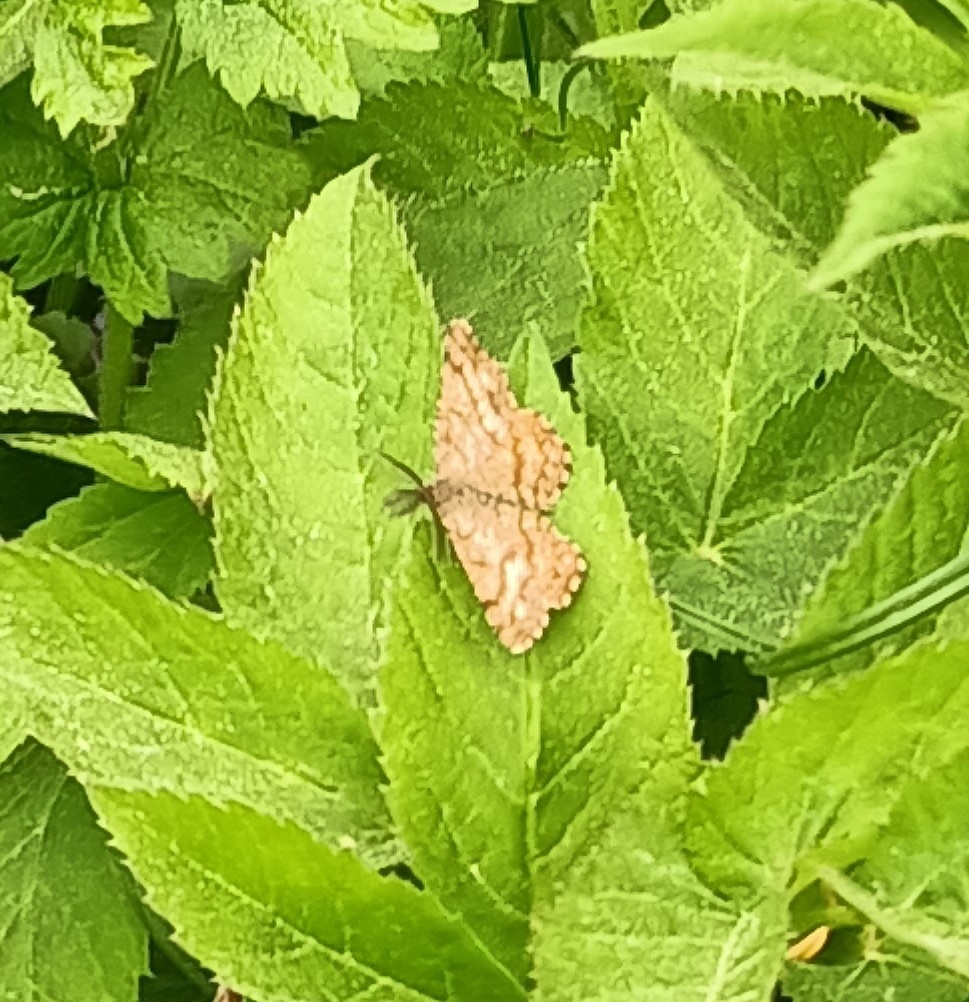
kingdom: Animalia
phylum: Arthropoda
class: Insecta
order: Lepidoptera
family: Geometridae
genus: Ematurga
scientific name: Ematurga atomaria
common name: Common heath
